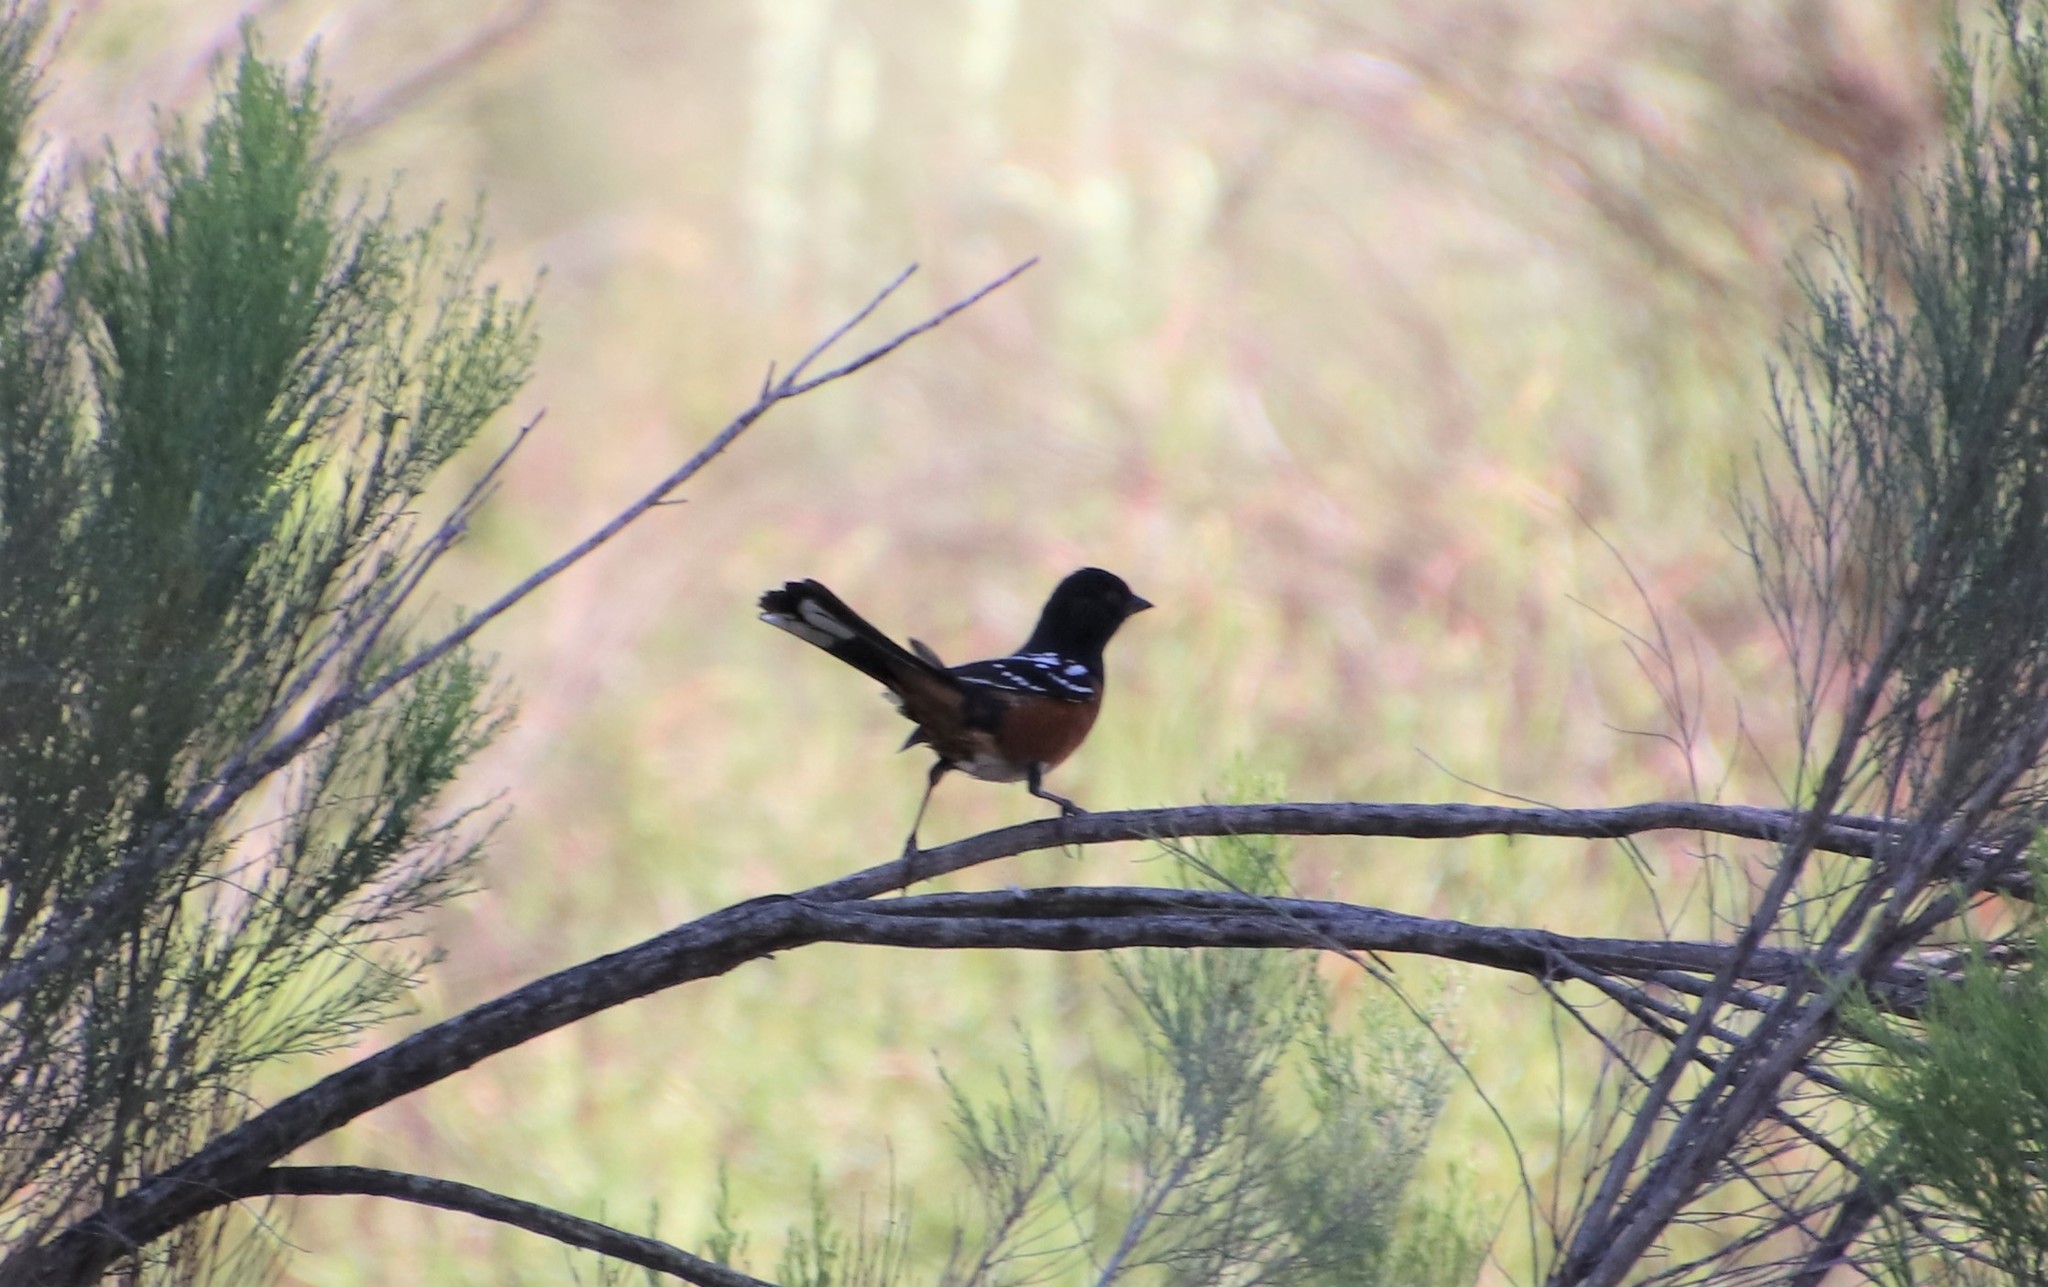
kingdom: Animalia
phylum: Chordata
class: Aves
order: Passeriformes
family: Passerellidae
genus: Pipilo
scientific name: Pipilo maculatus
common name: Spotted towhee
